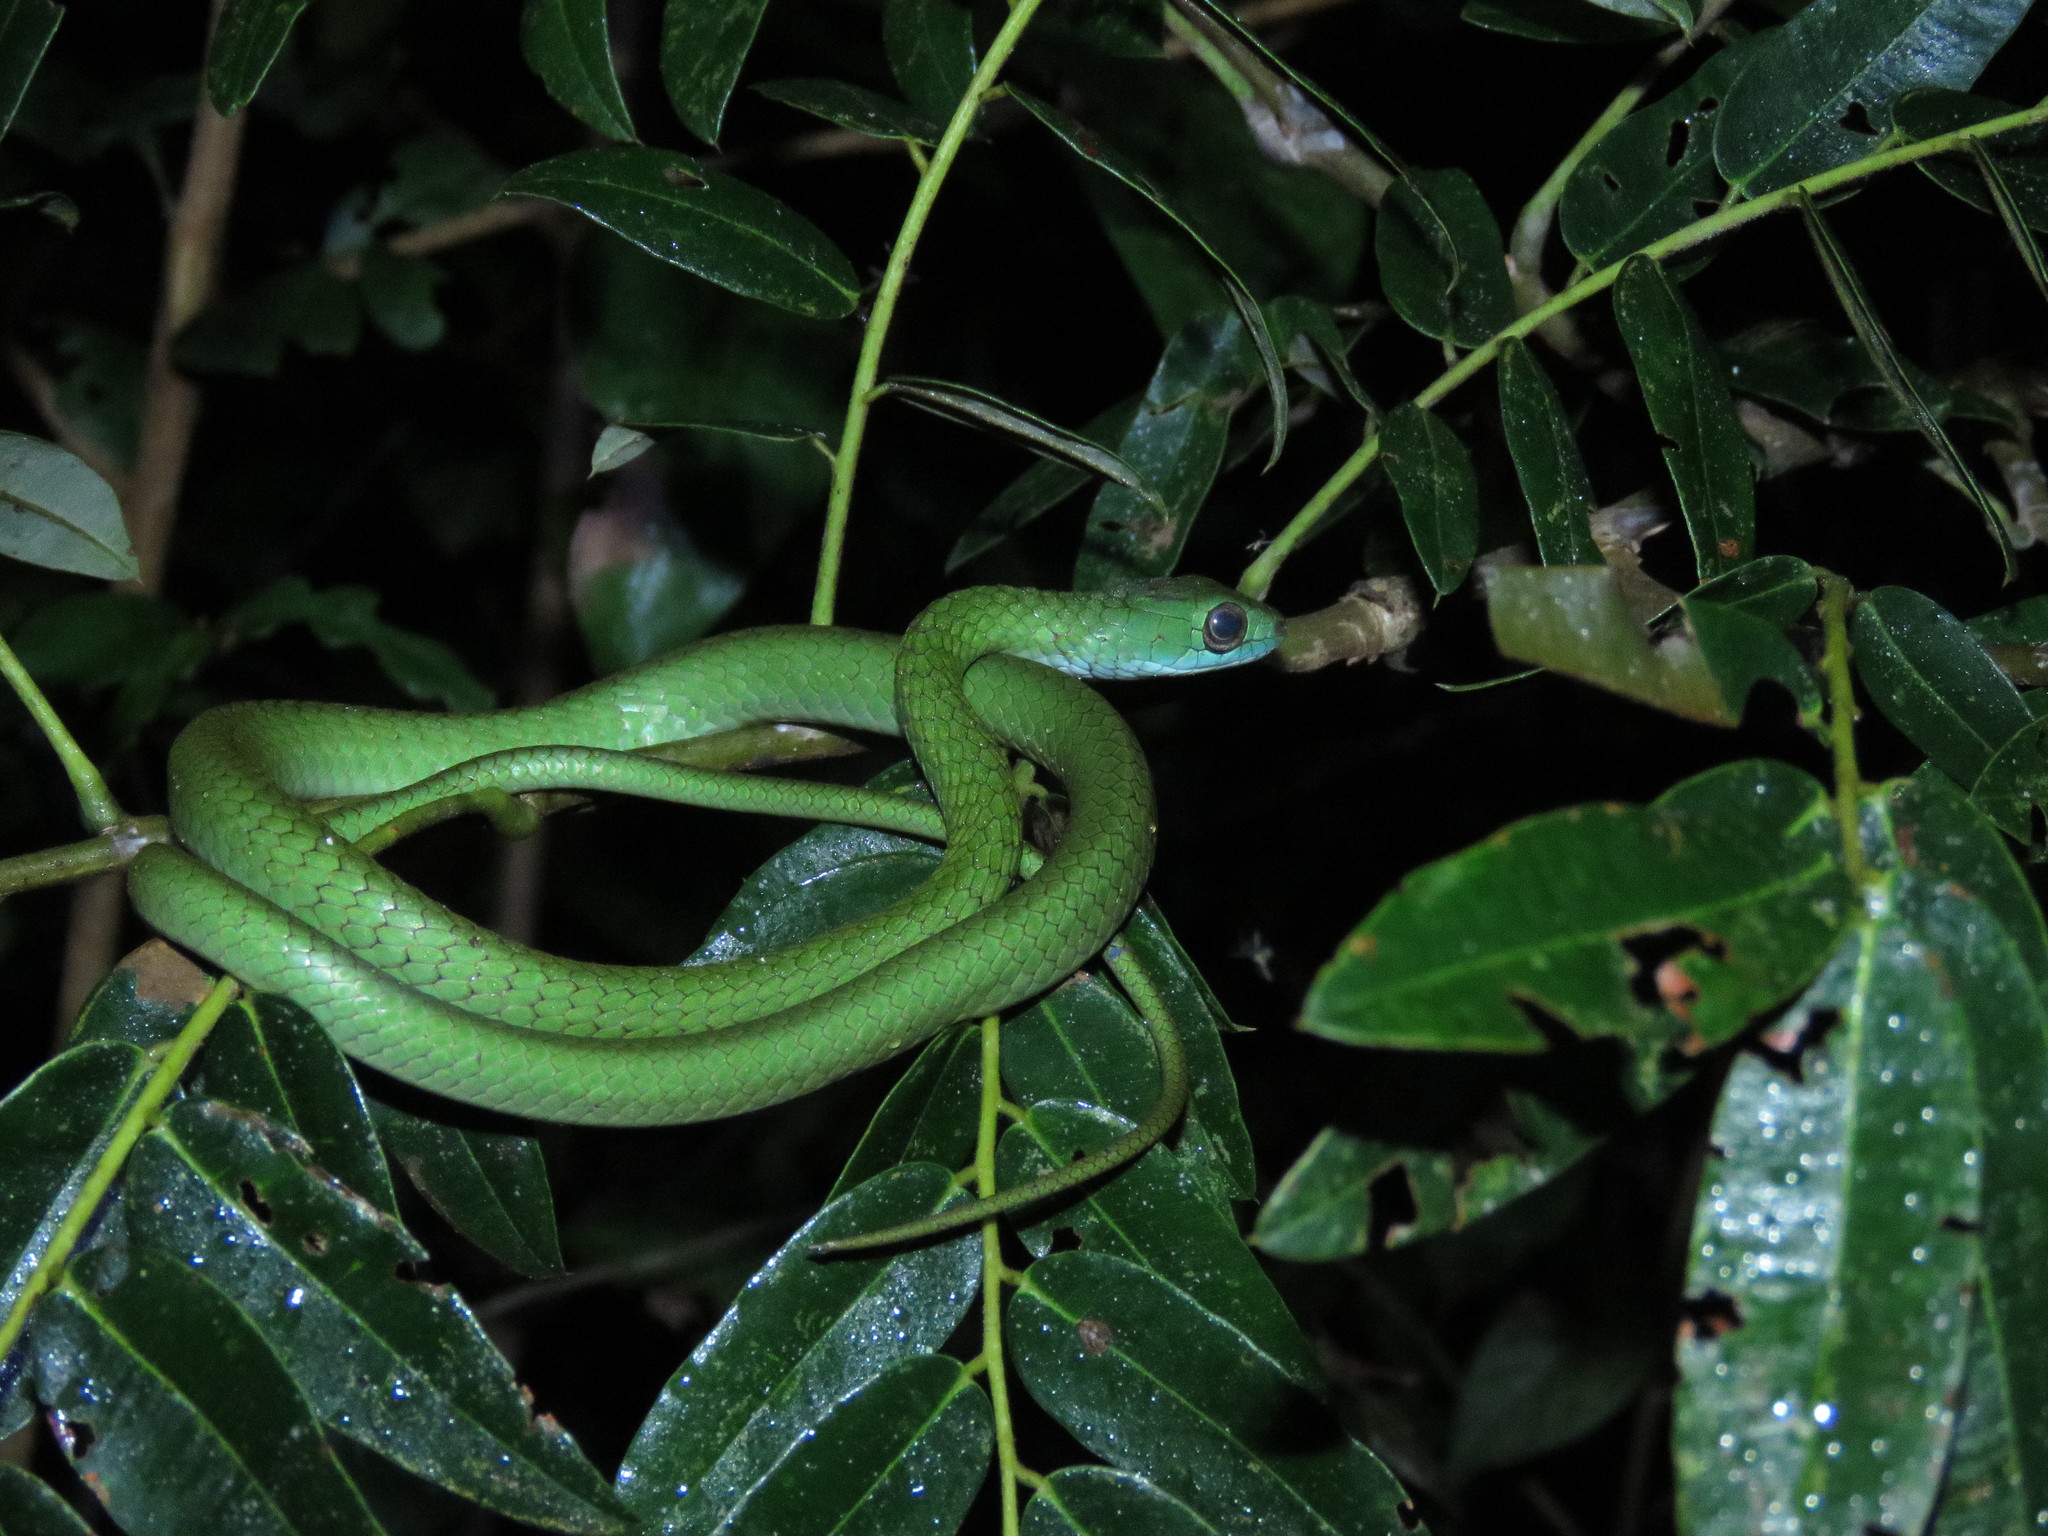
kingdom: Animalia
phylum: Chordata
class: Squamata
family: Colubridae
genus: Chironius
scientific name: Chironius scurrulus
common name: Wagler's sipo
